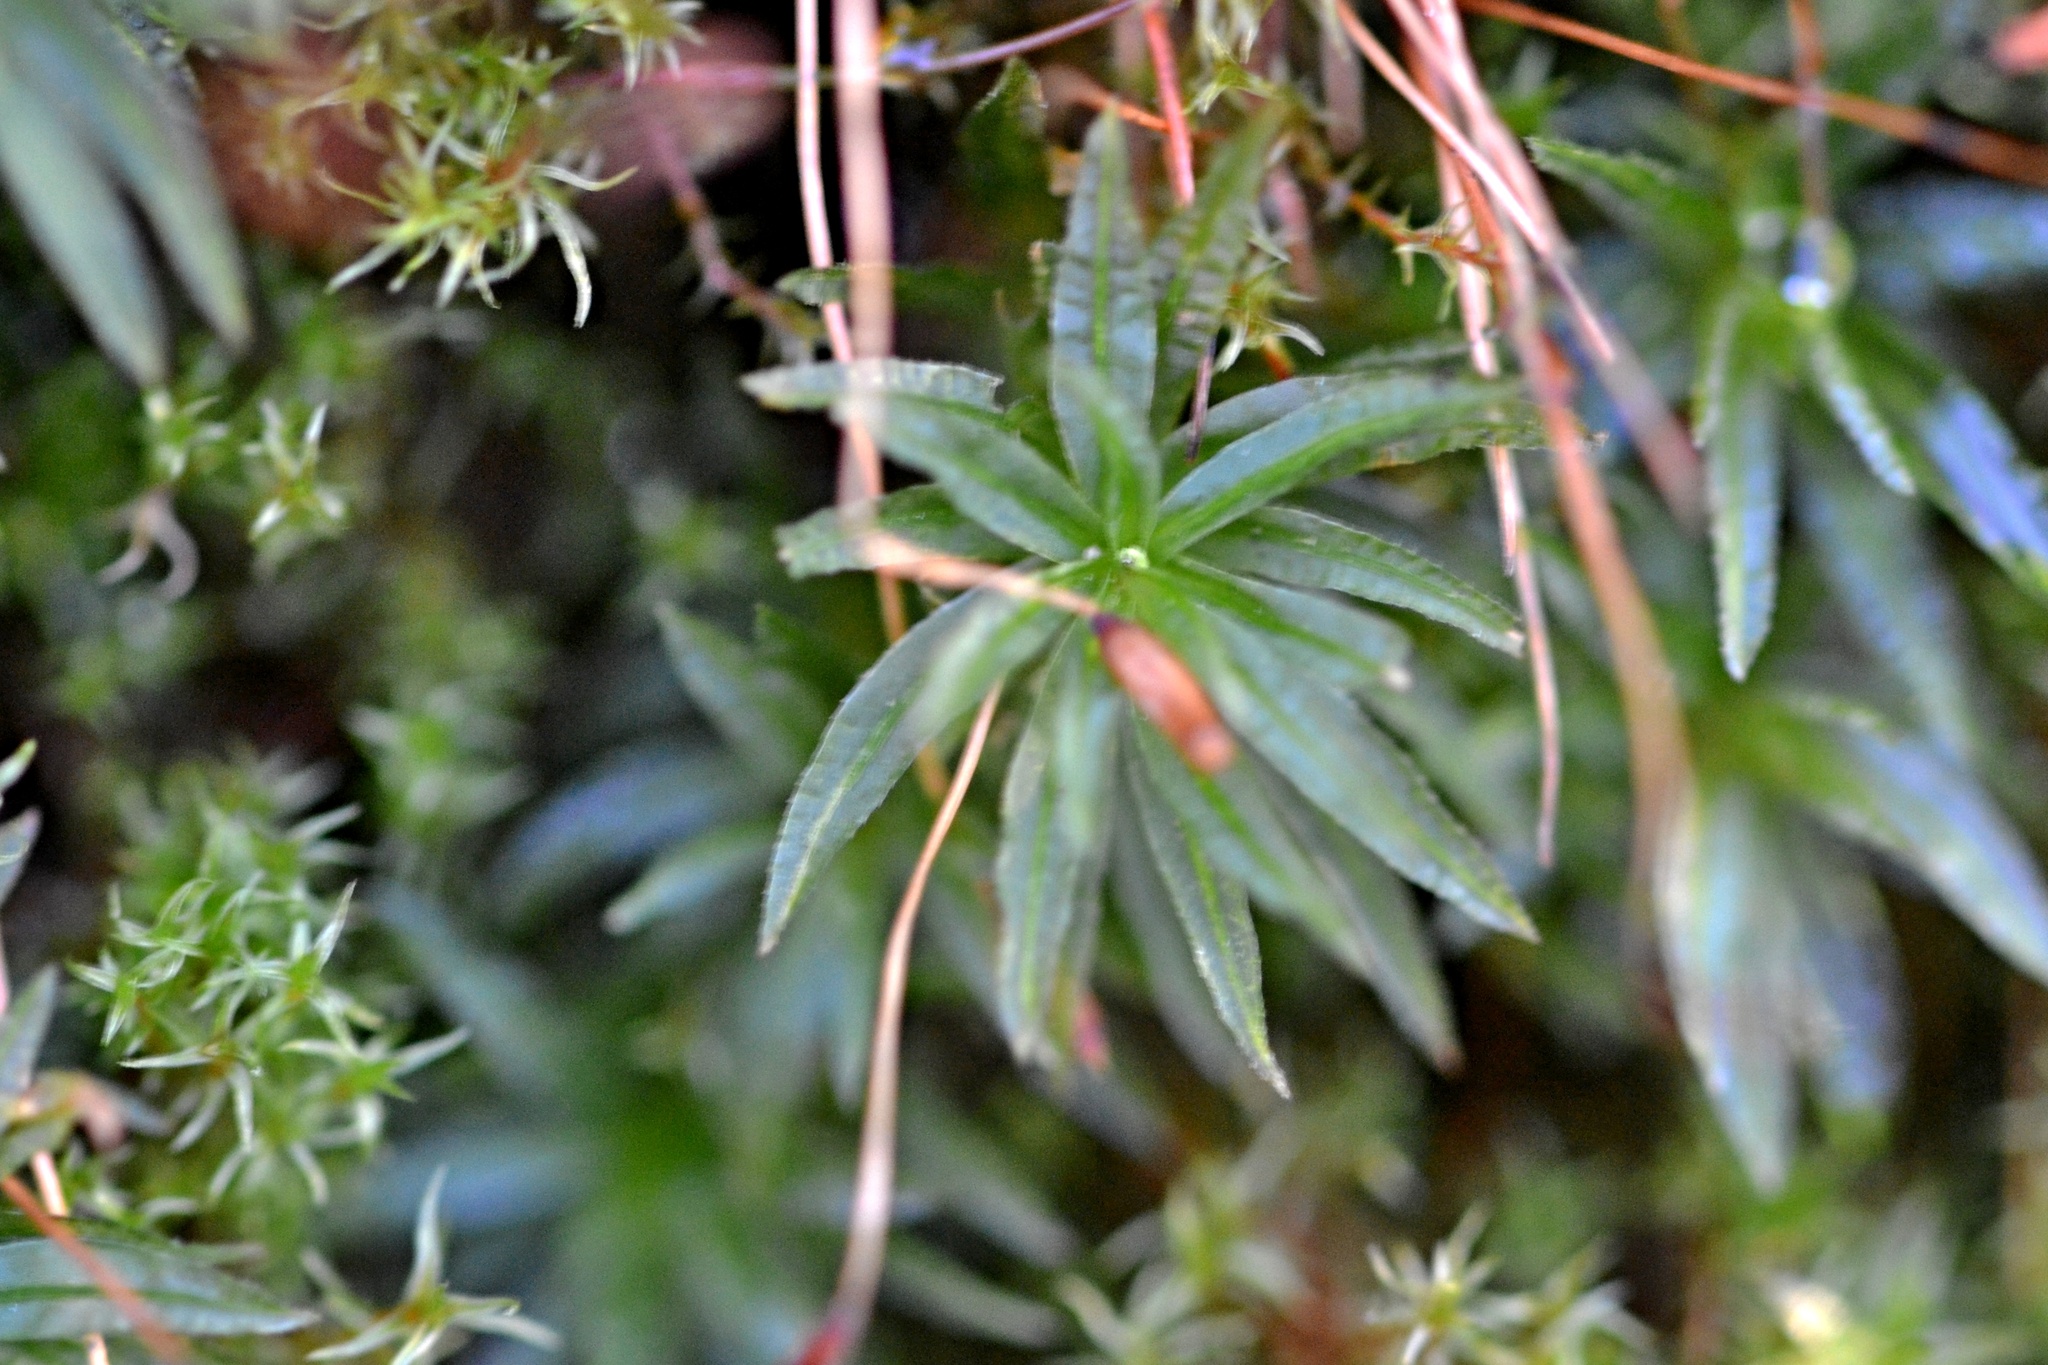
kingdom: Plantae
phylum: Bryophyta
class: Polytrichopsida
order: Polytrichales
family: Polytrichaceae
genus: Atrichum
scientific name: Atrichum undulatum
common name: Common smoothcap
